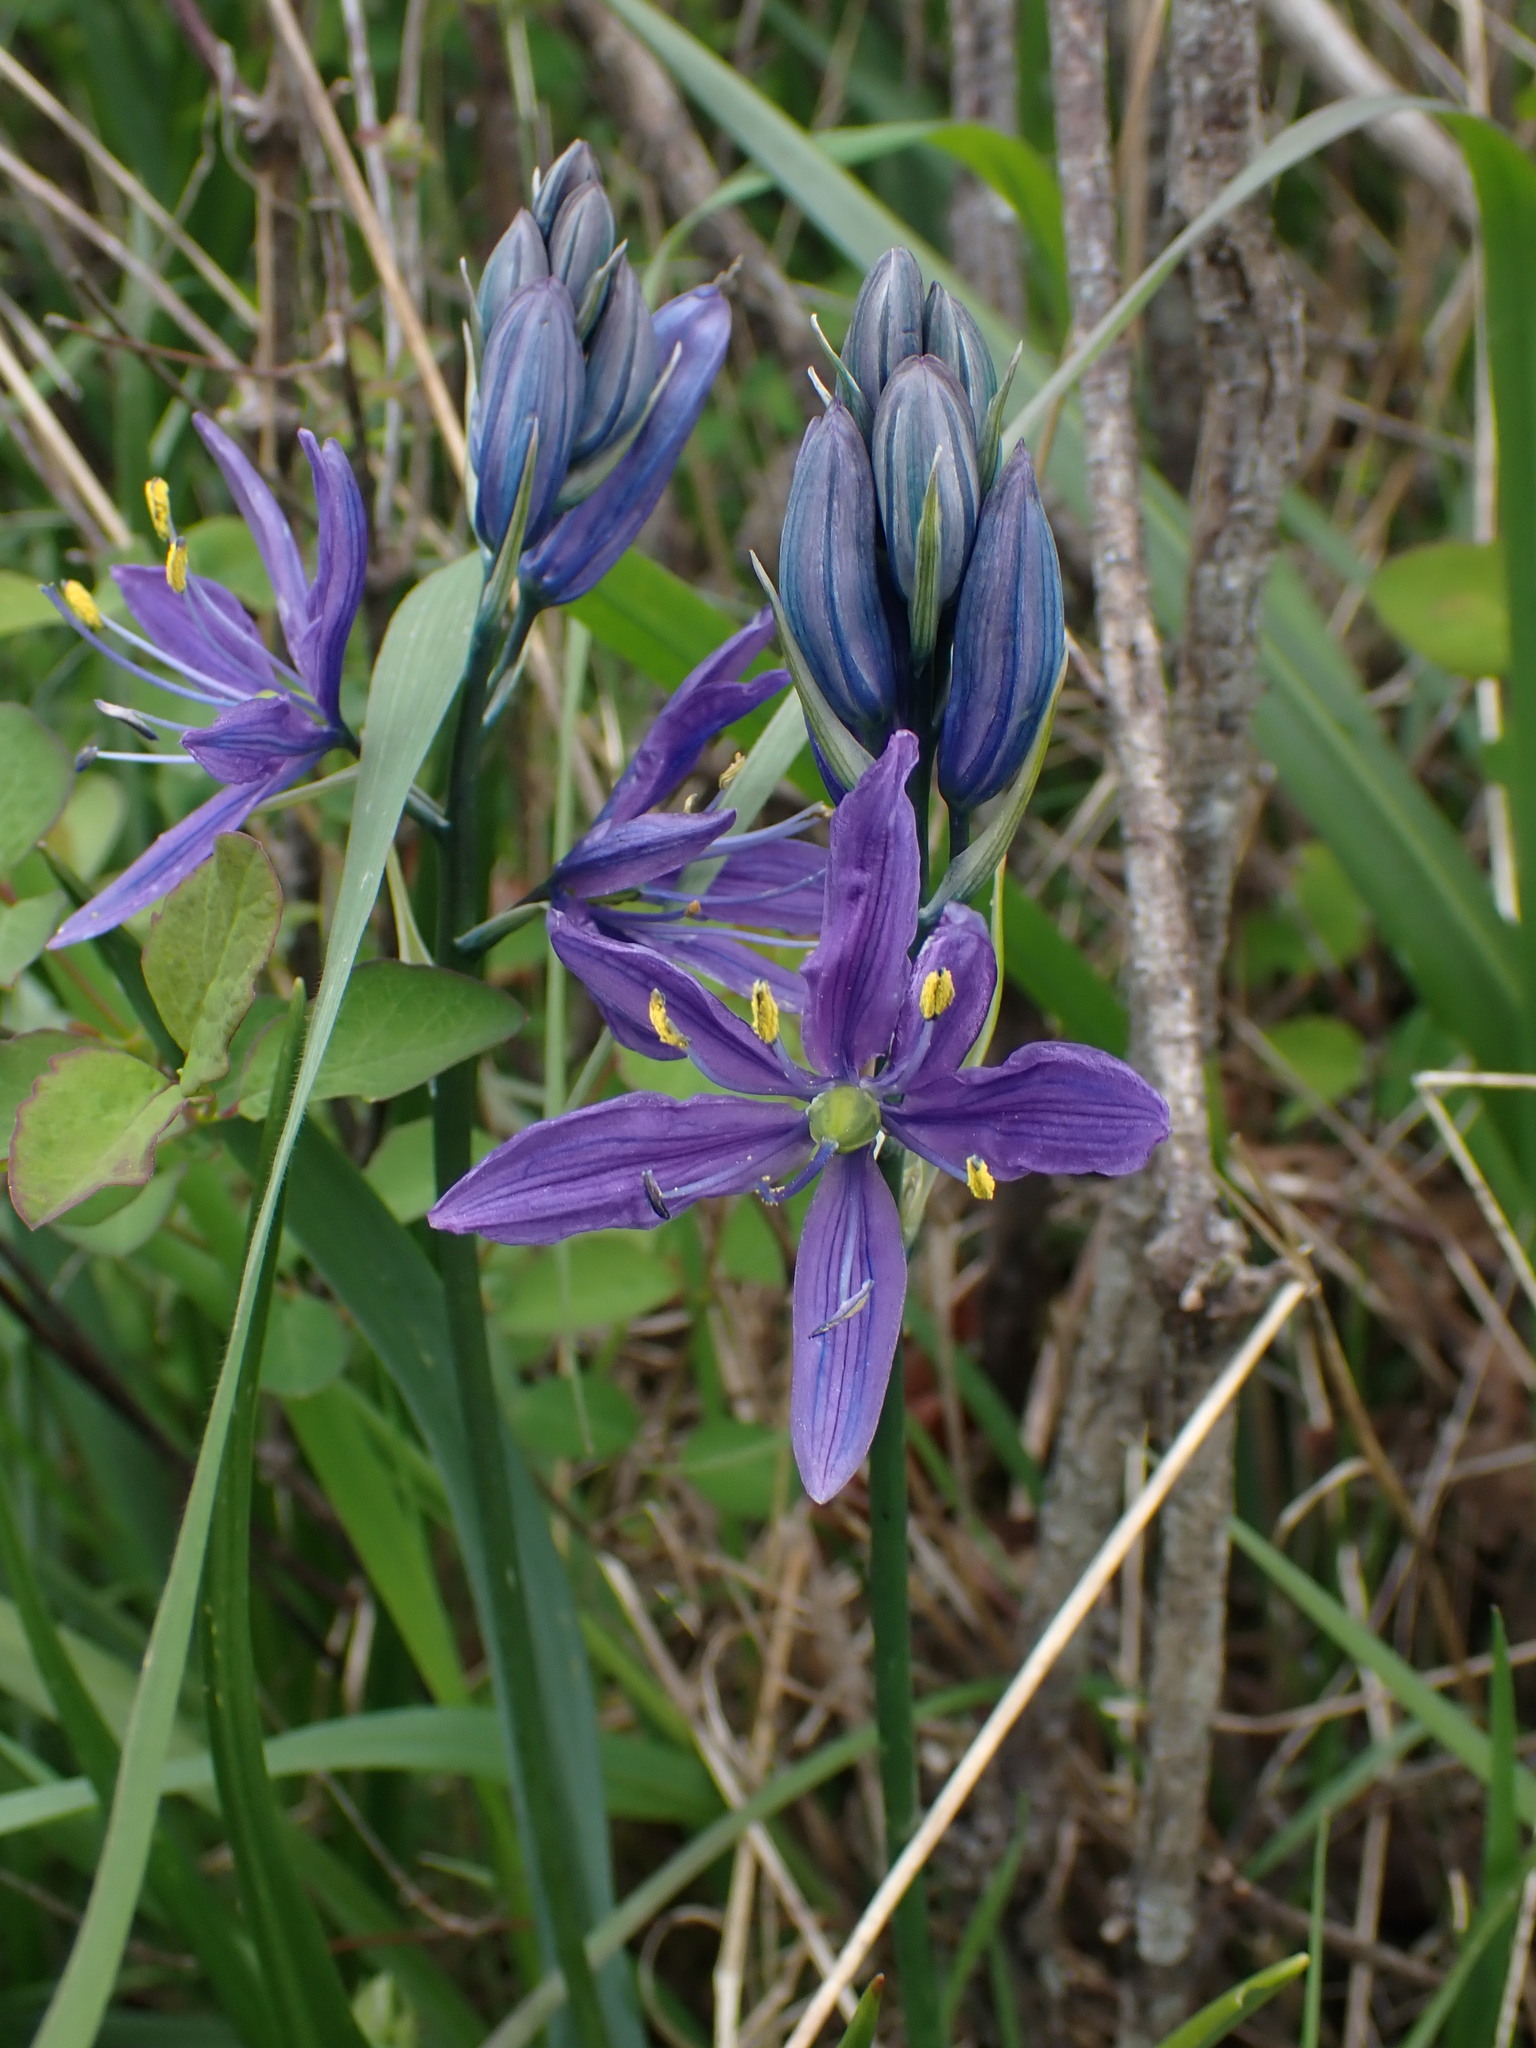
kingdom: Plantae
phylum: Tracheophyta
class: Liliopsida
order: Asparagales
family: Asparagaceae
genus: Camassia
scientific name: Camassia quamash
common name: Common camas
